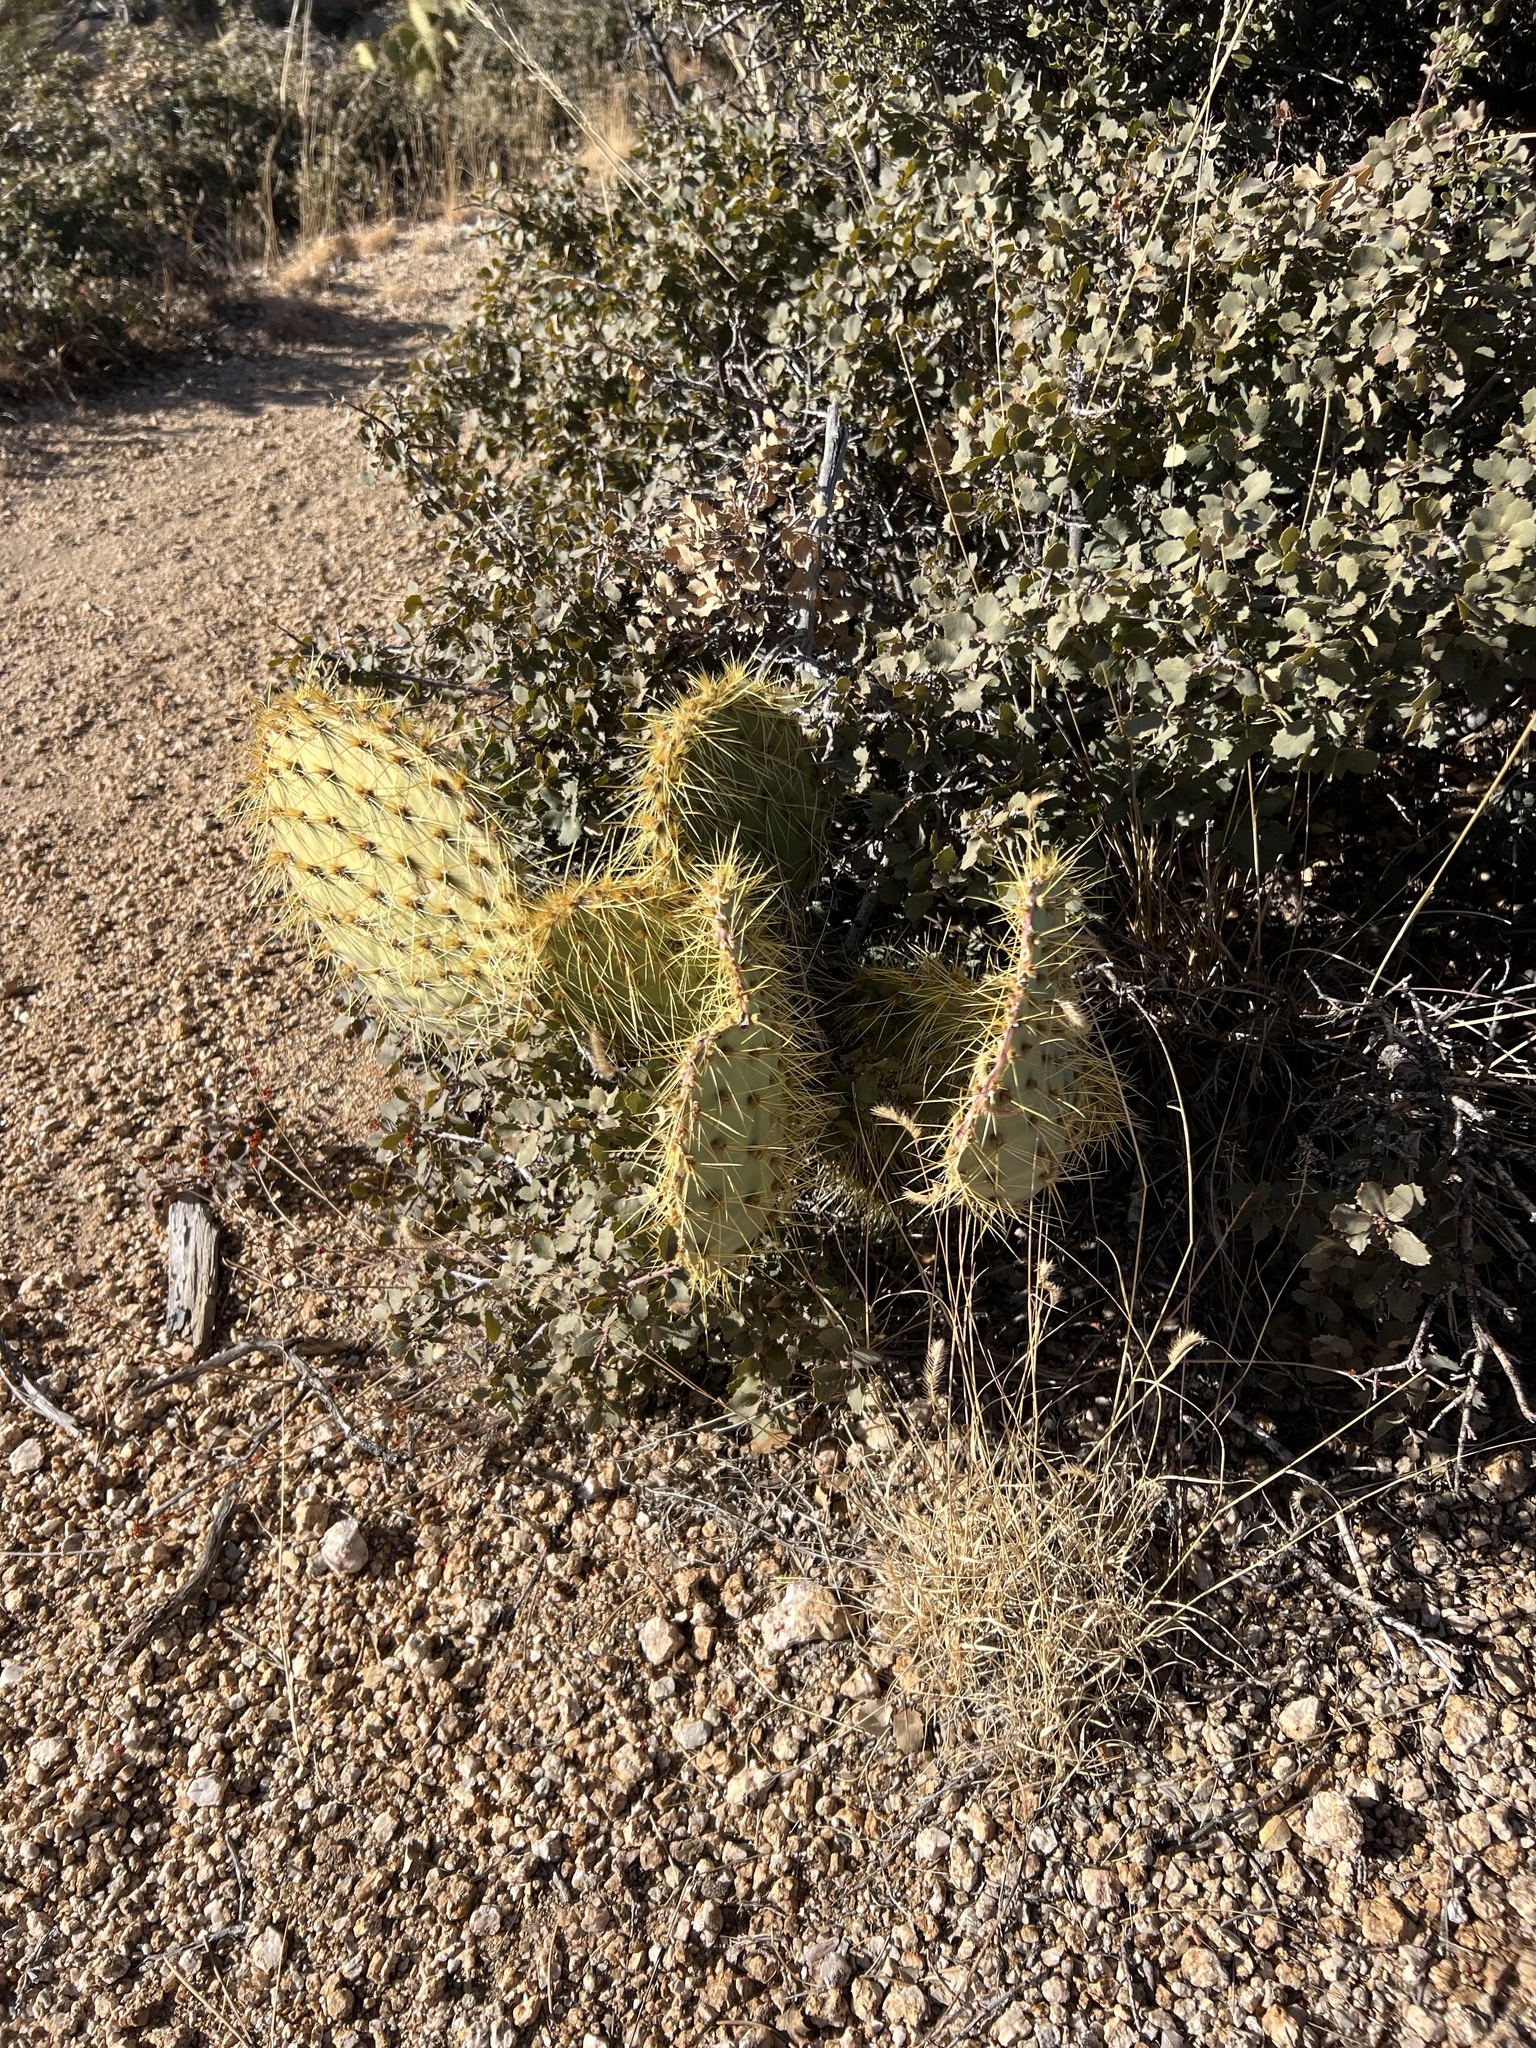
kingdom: Plantae
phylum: Tracheophyta
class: Magnoliopsida
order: Caryophyllales
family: Cactaceae
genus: Opuntia
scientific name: Opuntia chlorotica
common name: Dollar-joint prickly-pear
